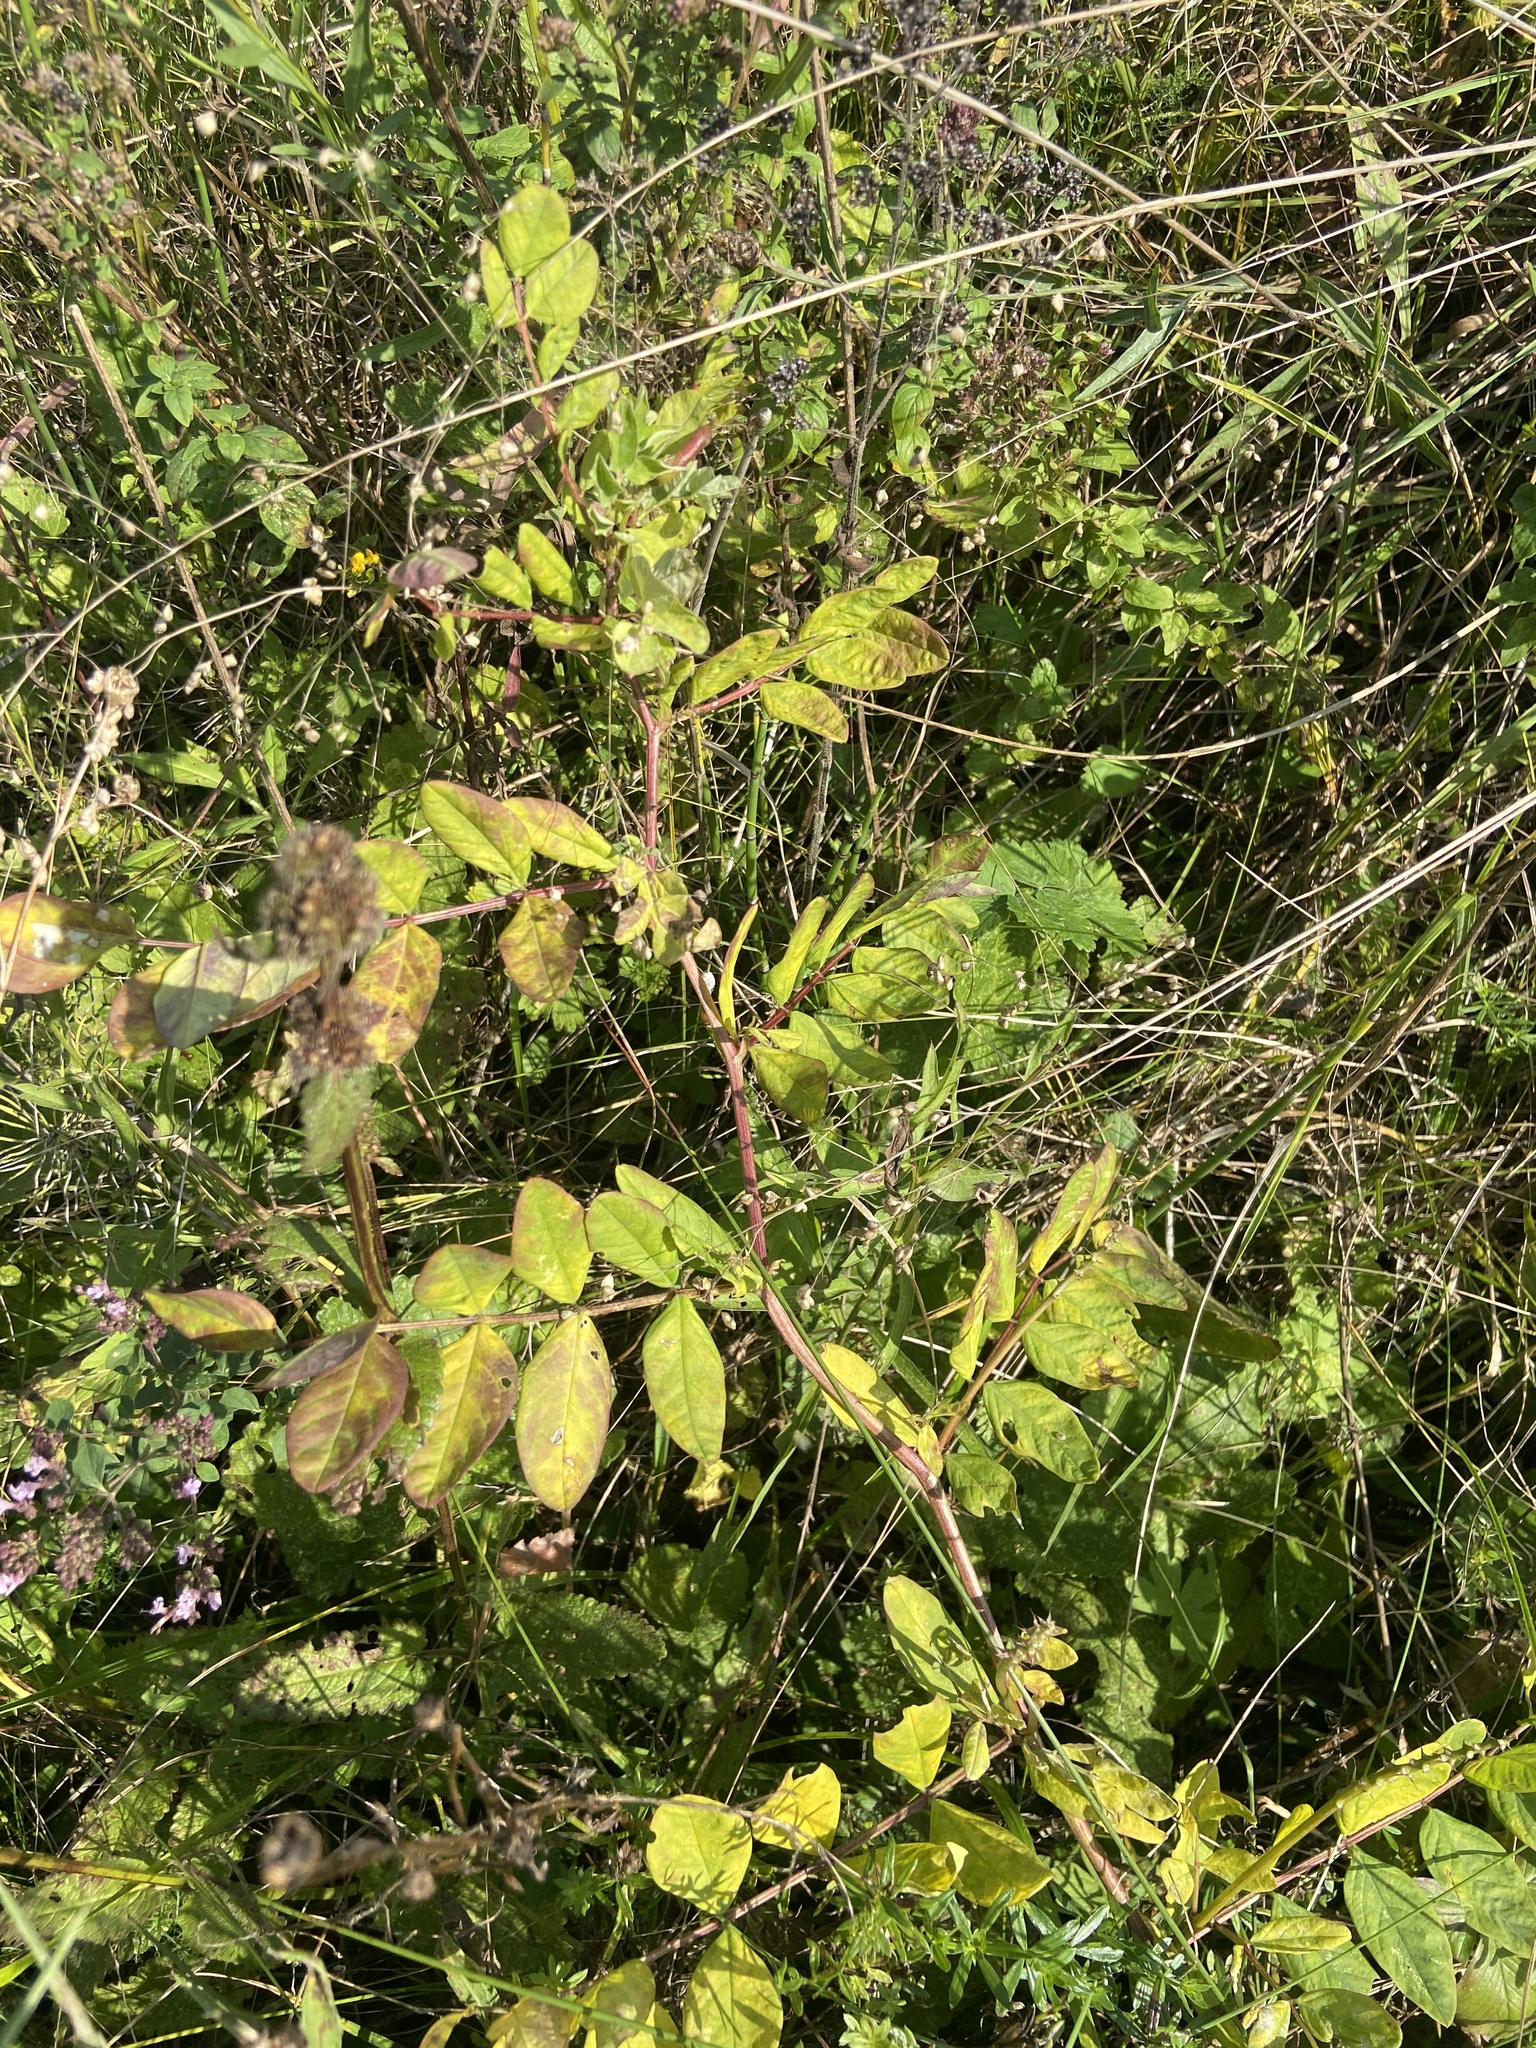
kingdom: Plantae
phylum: Tracheophyta
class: Magnoliopsida
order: Fabales
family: Fabaceae
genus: Astragalus
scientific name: Astragalus glycyphyllos
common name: Wild liquorice
